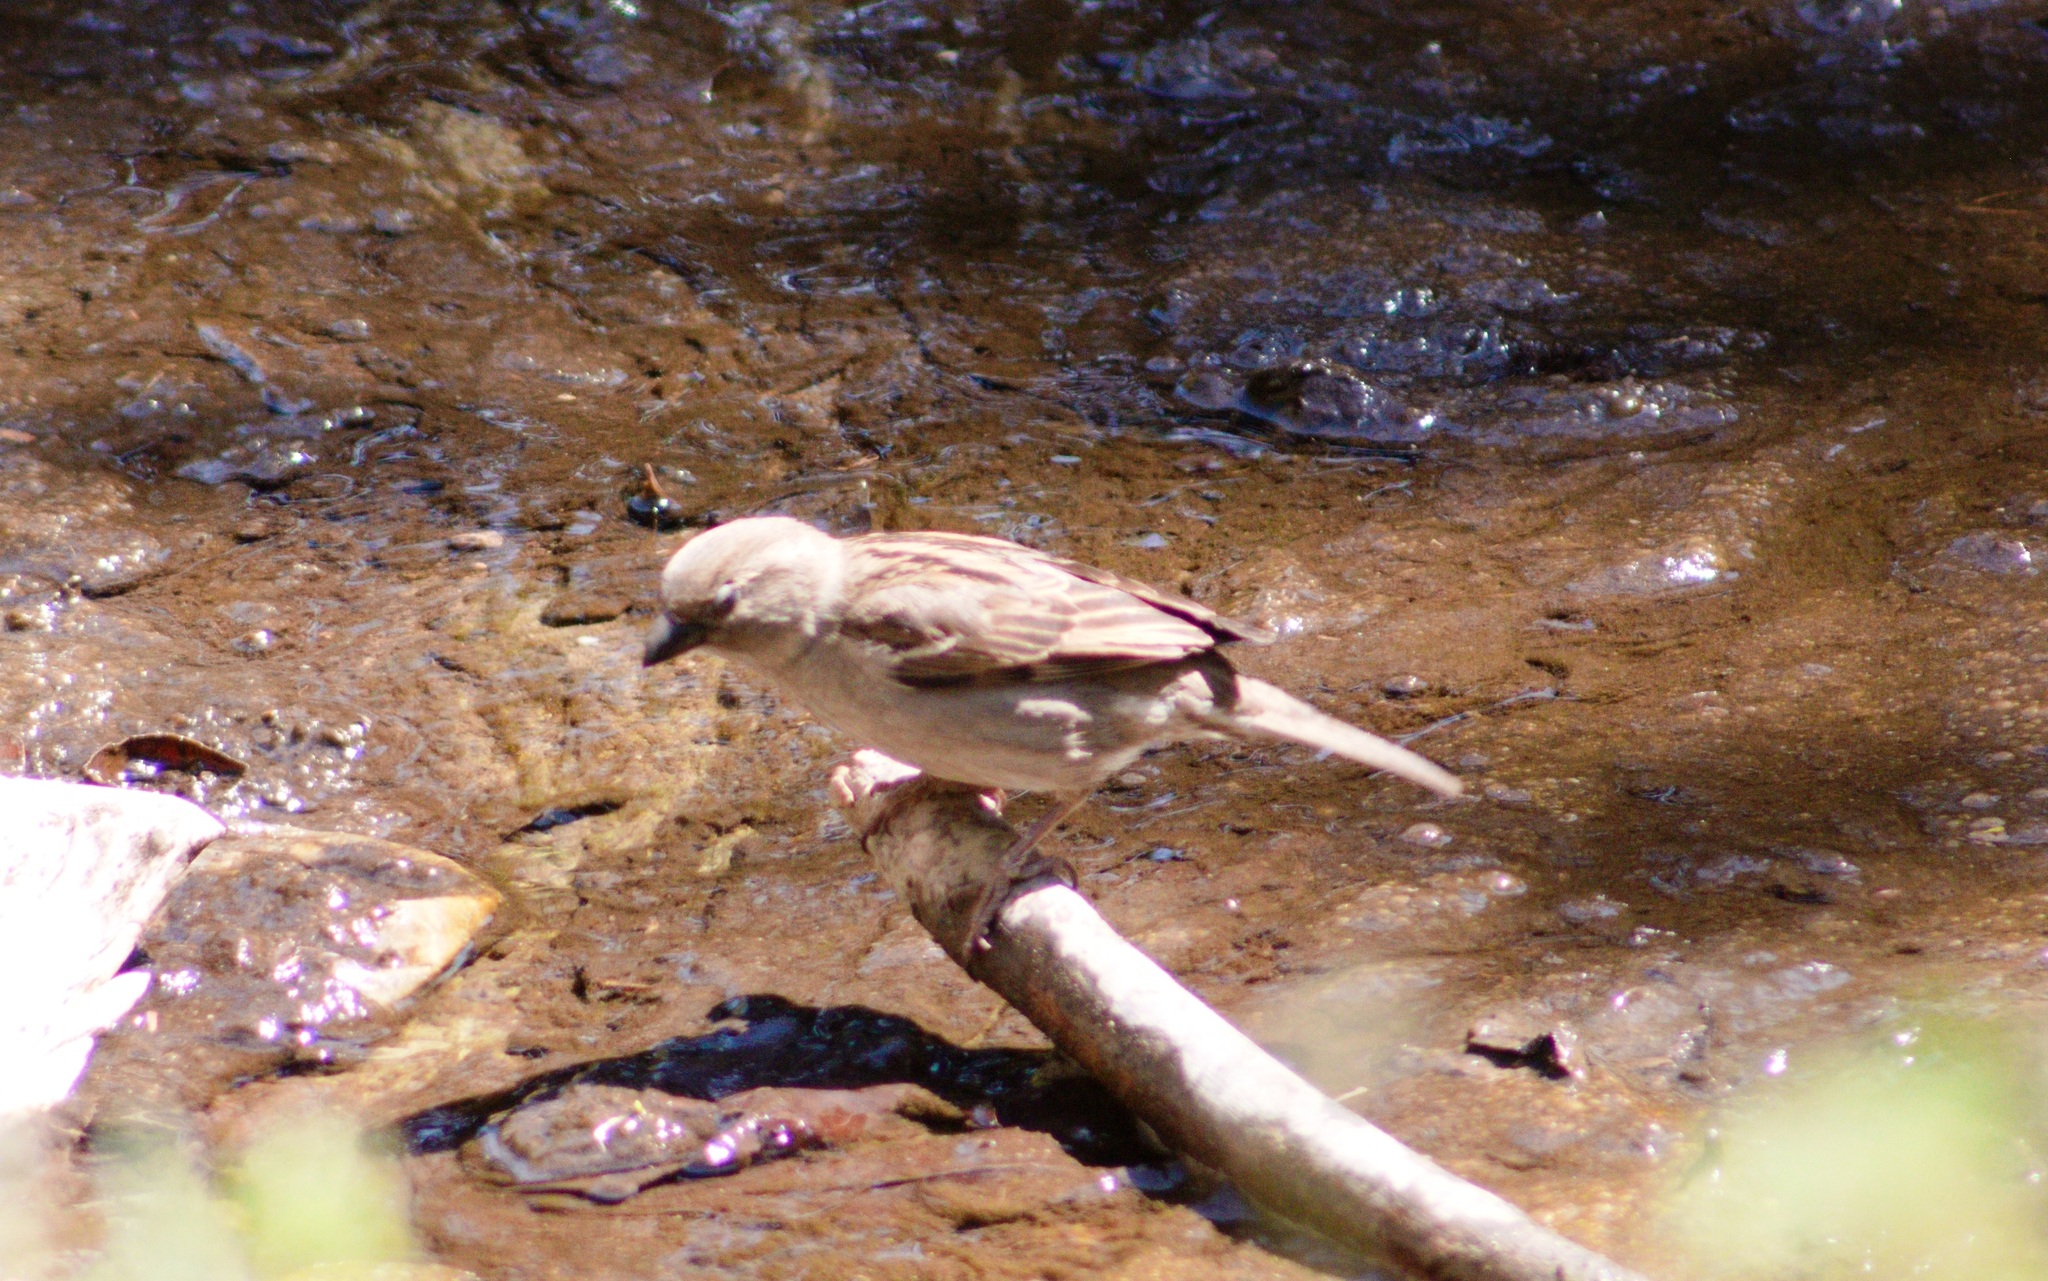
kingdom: Animalia
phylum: Chordata
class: Aves
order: Passeriformes
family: Passeridae
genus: Passer
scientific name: Passer domesticus
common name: House sparrow
